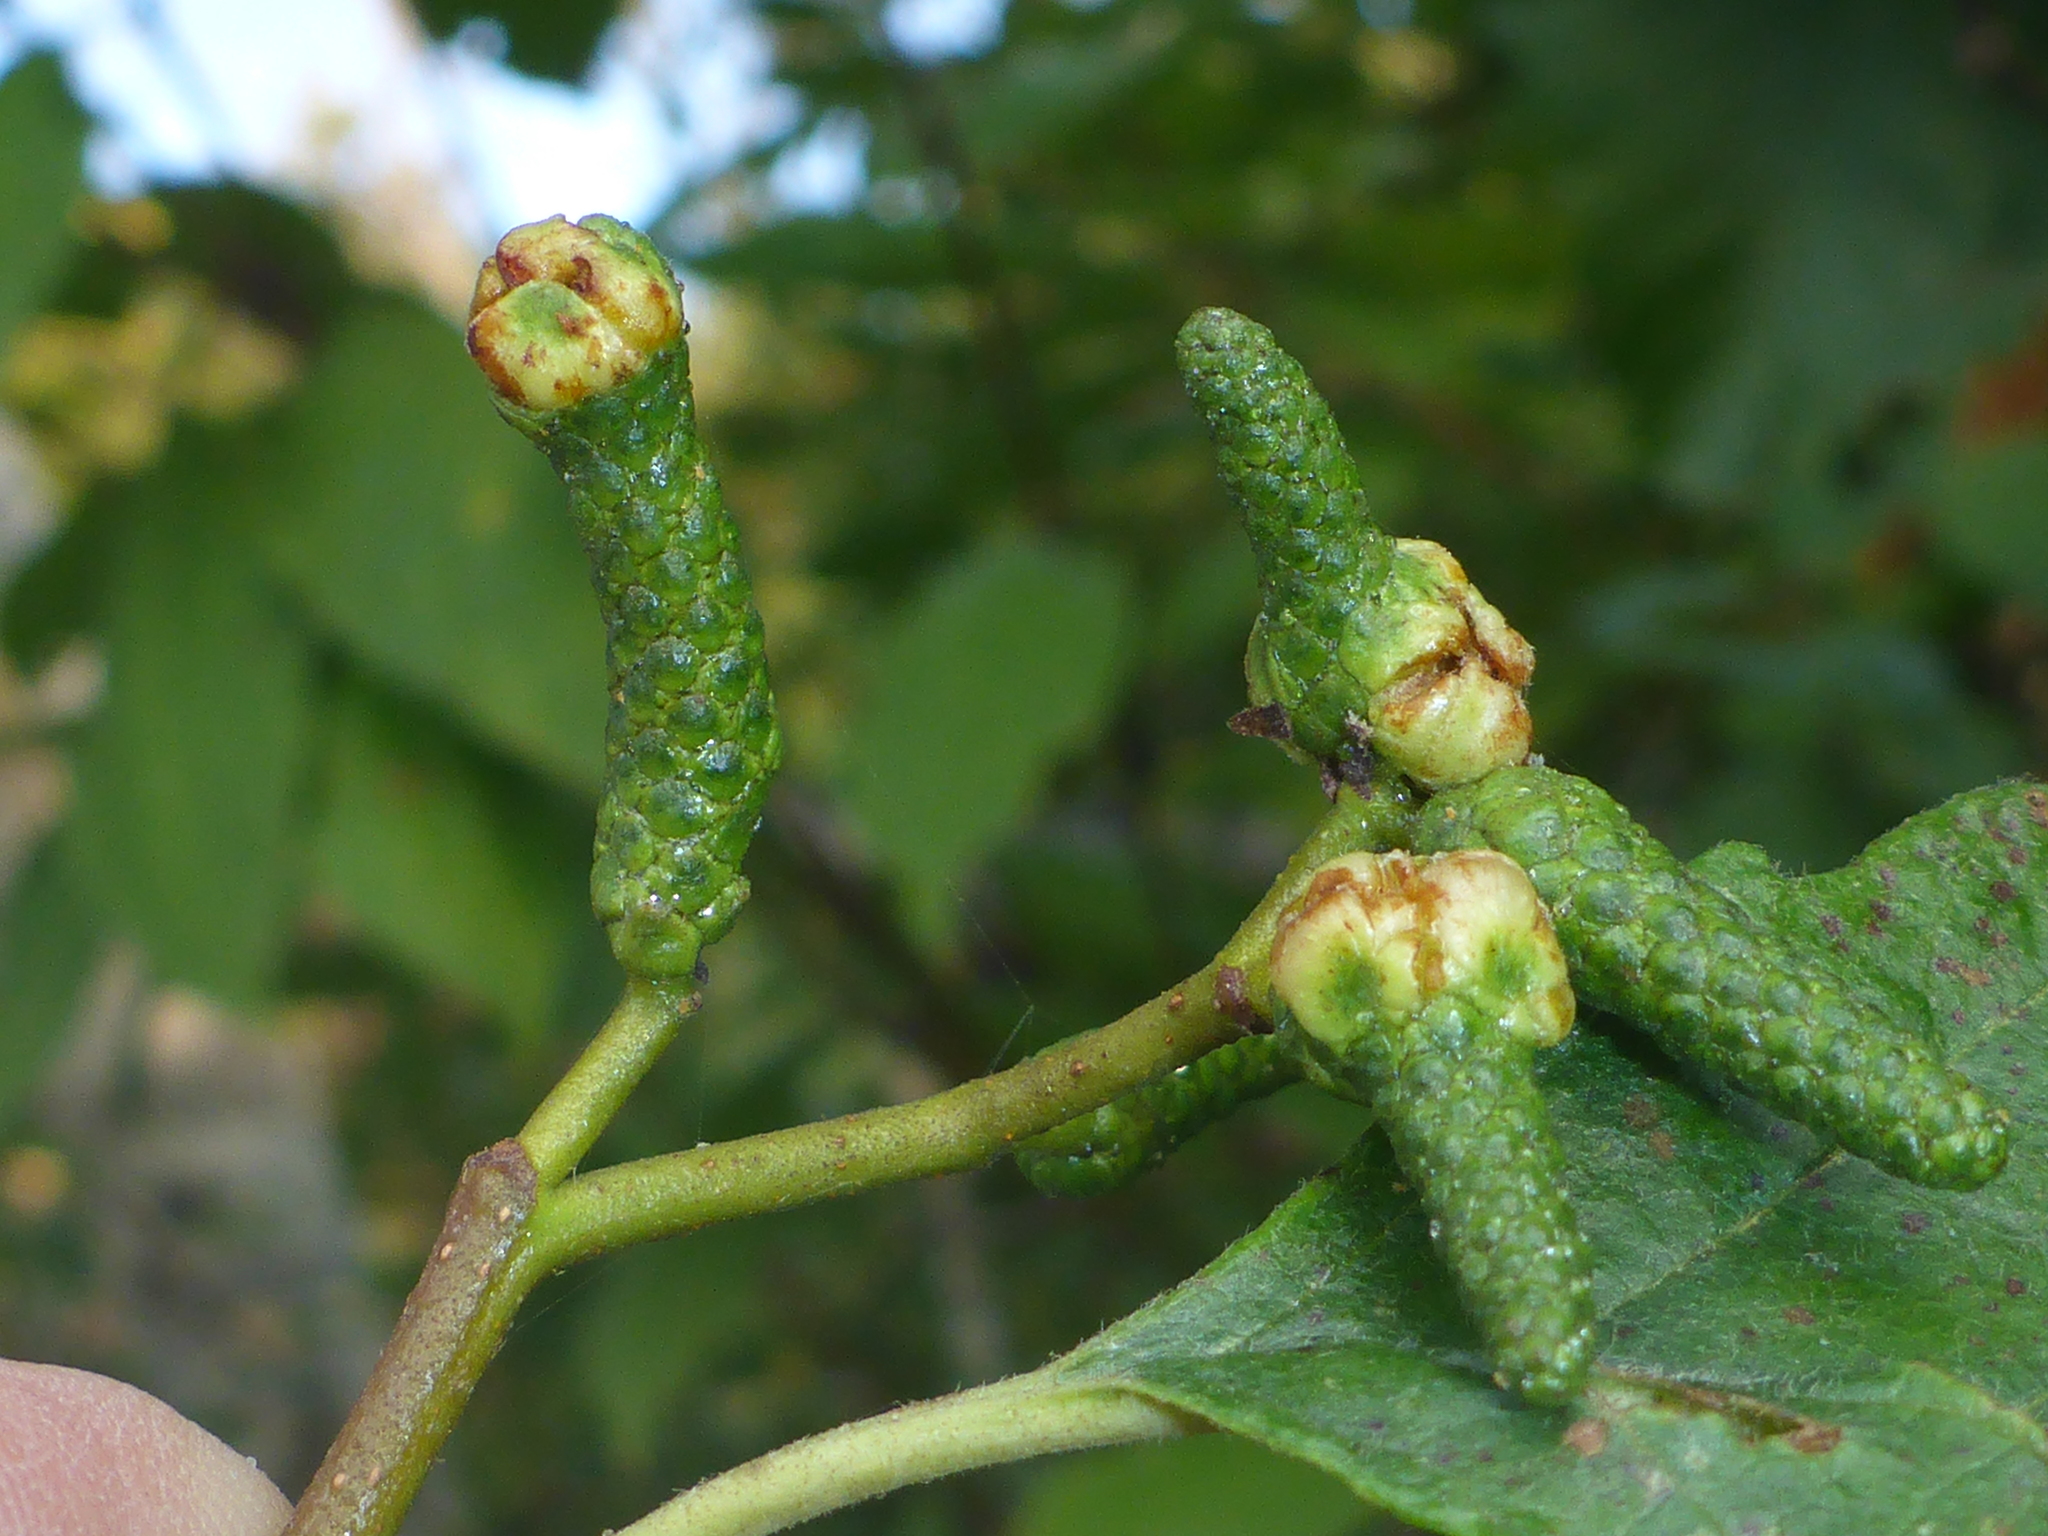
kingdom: Animalia
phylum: Arthropoda
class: Insecta
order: Diptera
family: Cecidomyiidae
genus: Dasineura
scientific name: Dasineura
